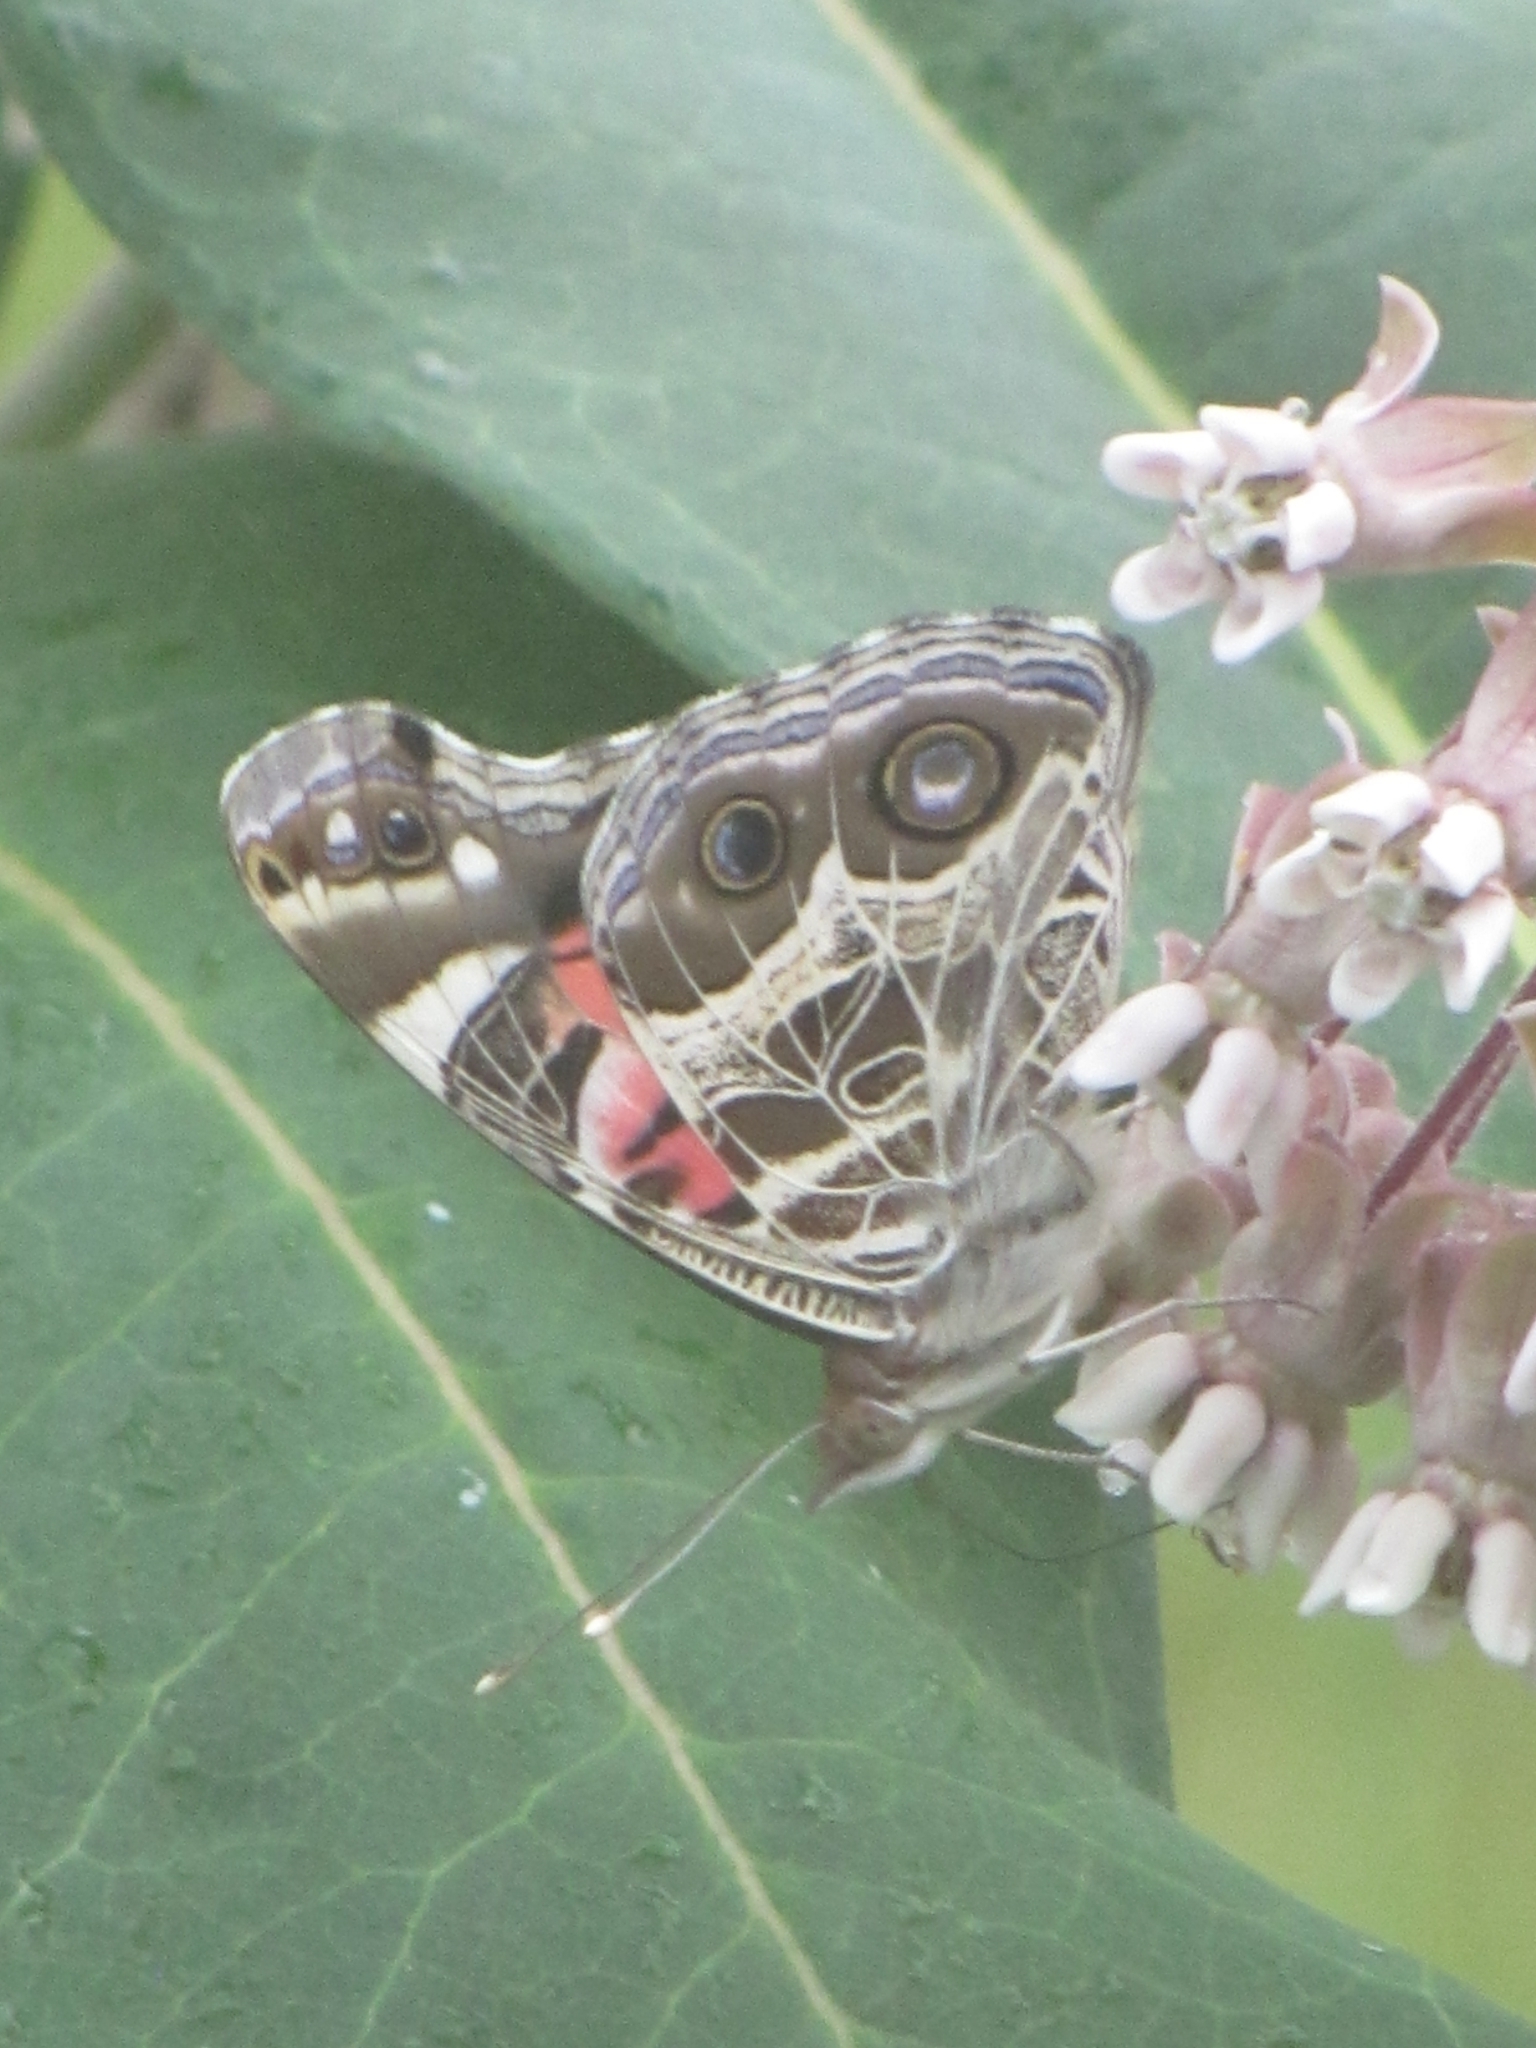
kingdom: Animalia
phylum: Arthropoda
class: Insecta
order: Lepidoptera
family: Nymphalidae
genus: Vanessa
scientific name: Vanessa virginiensis
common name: American lady
